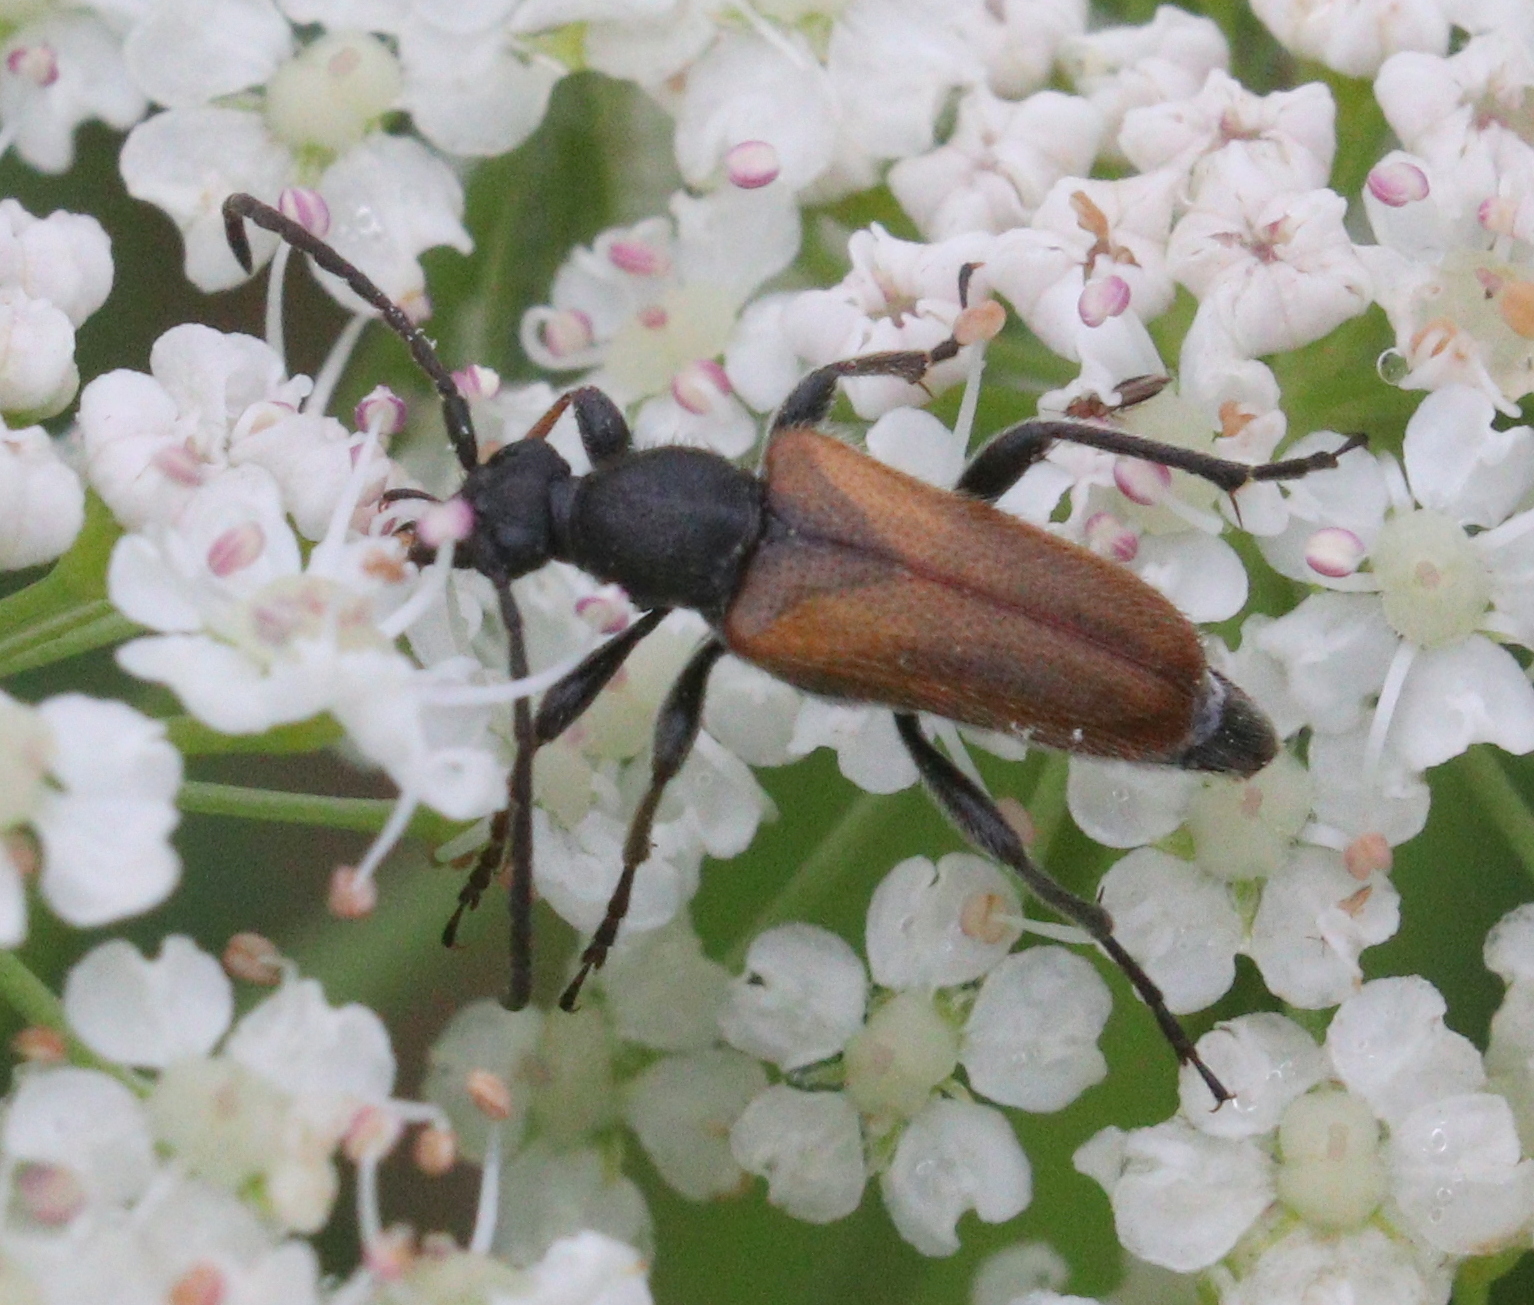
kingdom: Animalia
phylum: Arthropoda
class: Insecta
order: Coleoptera
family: Cerambycidae
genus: Pseudovadonia
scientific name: Pseudovadonia livida
